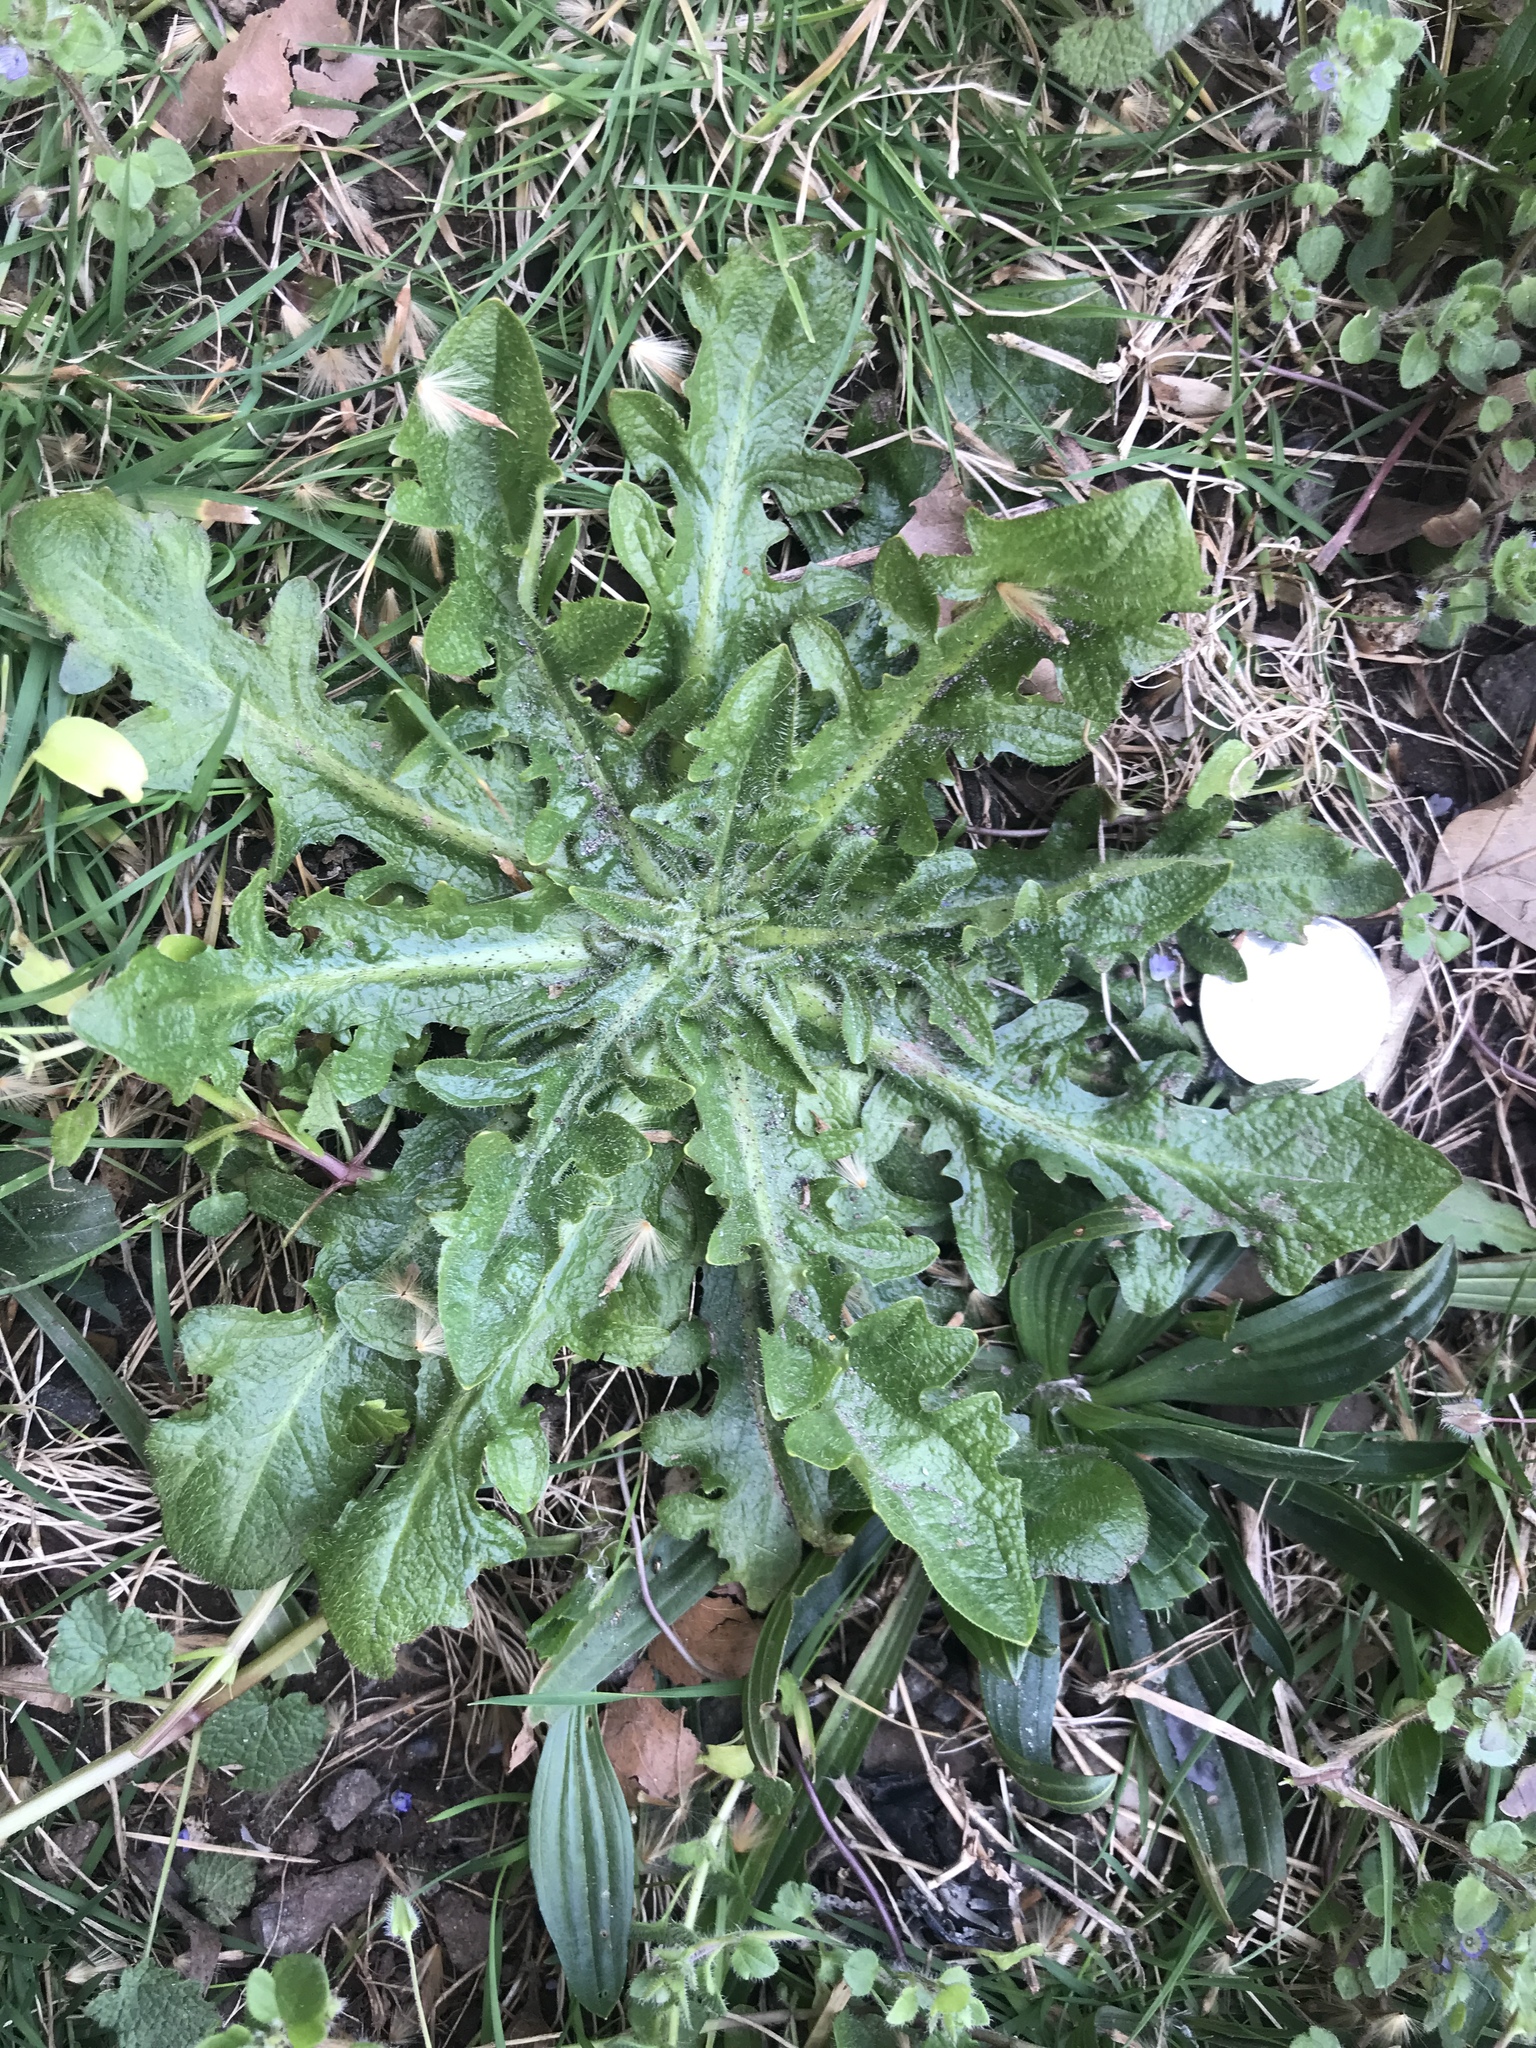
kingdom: Plantae
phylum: Tracheophyta
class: Magnoliopsida
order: Asterales
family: Asteraceae
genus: Hypochaeris
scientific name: Hypochaeris radicata
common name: Flatweed
